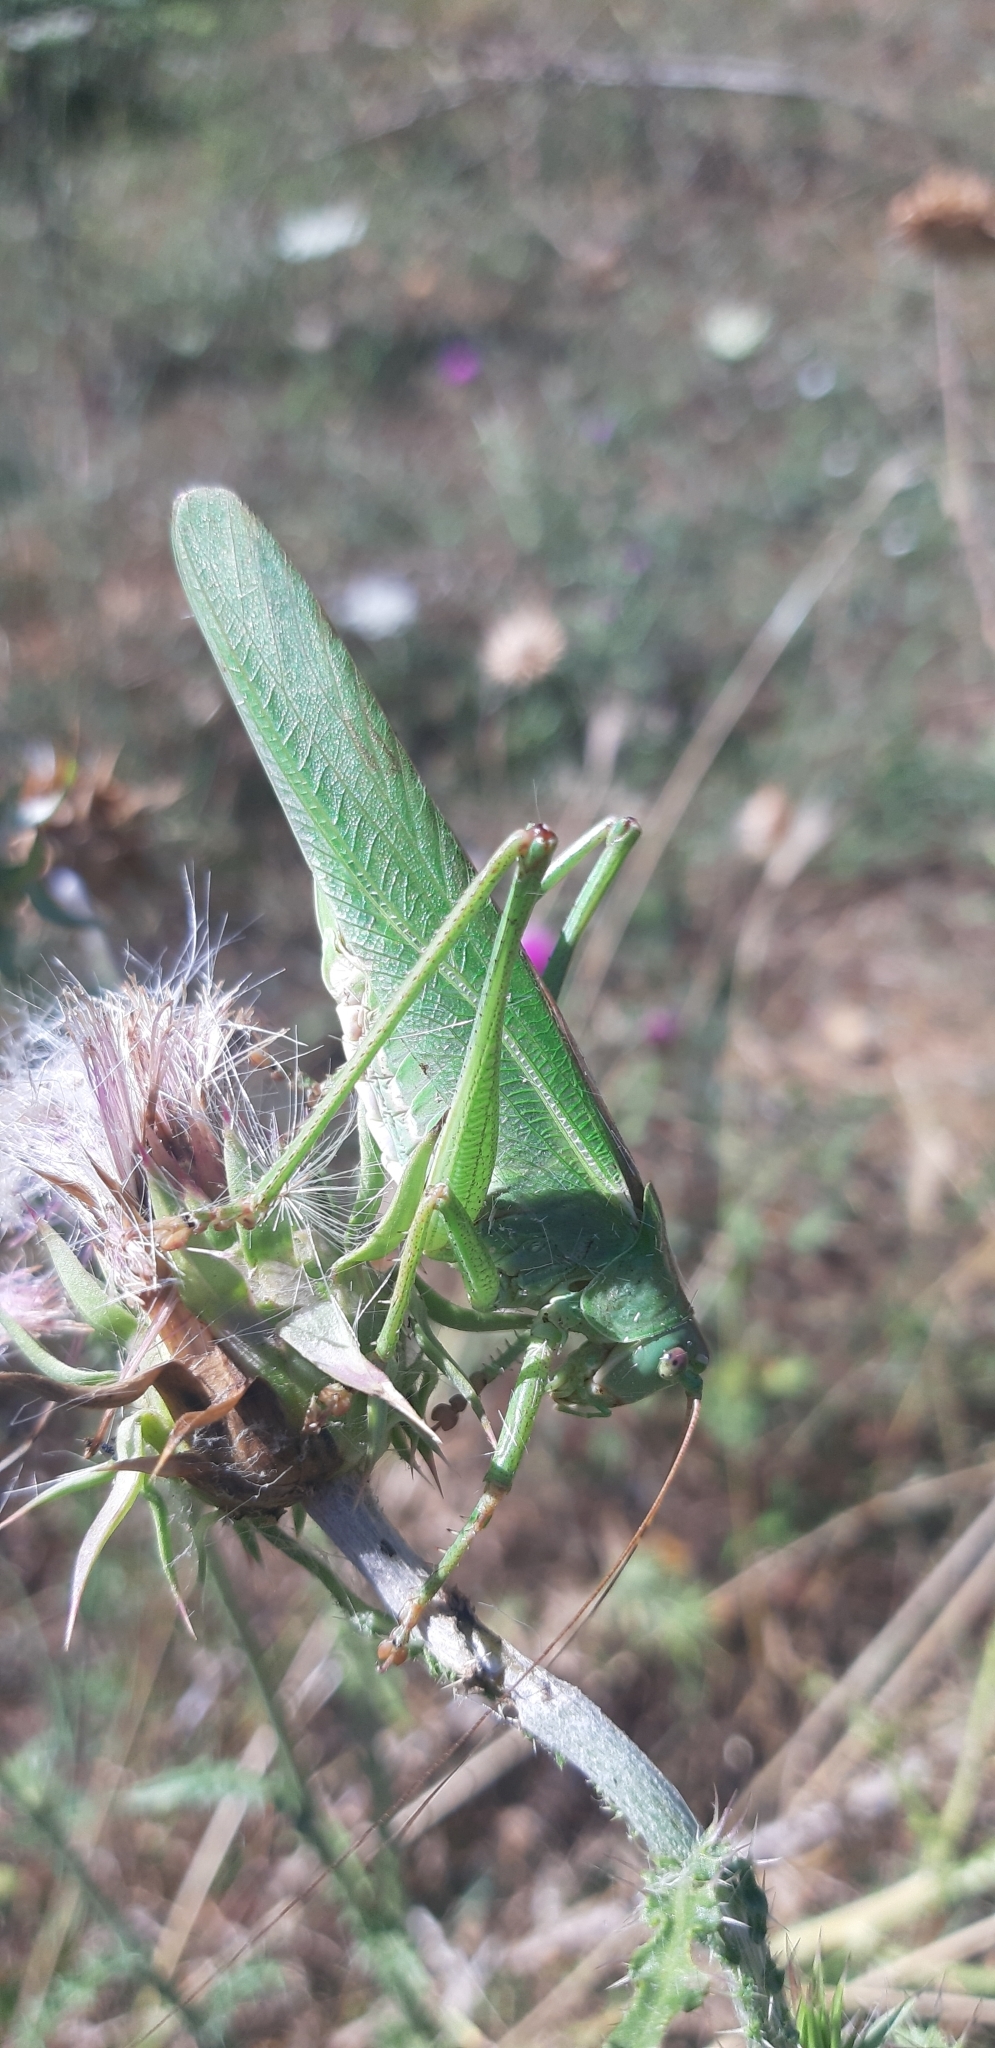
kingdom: Animalia
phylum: Arthropoda
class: Insecta
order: Orthoptera
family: Tettigoniidae
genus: Tettigonia
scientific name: Tettigonia viridissima
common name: Great green bush-cricket
